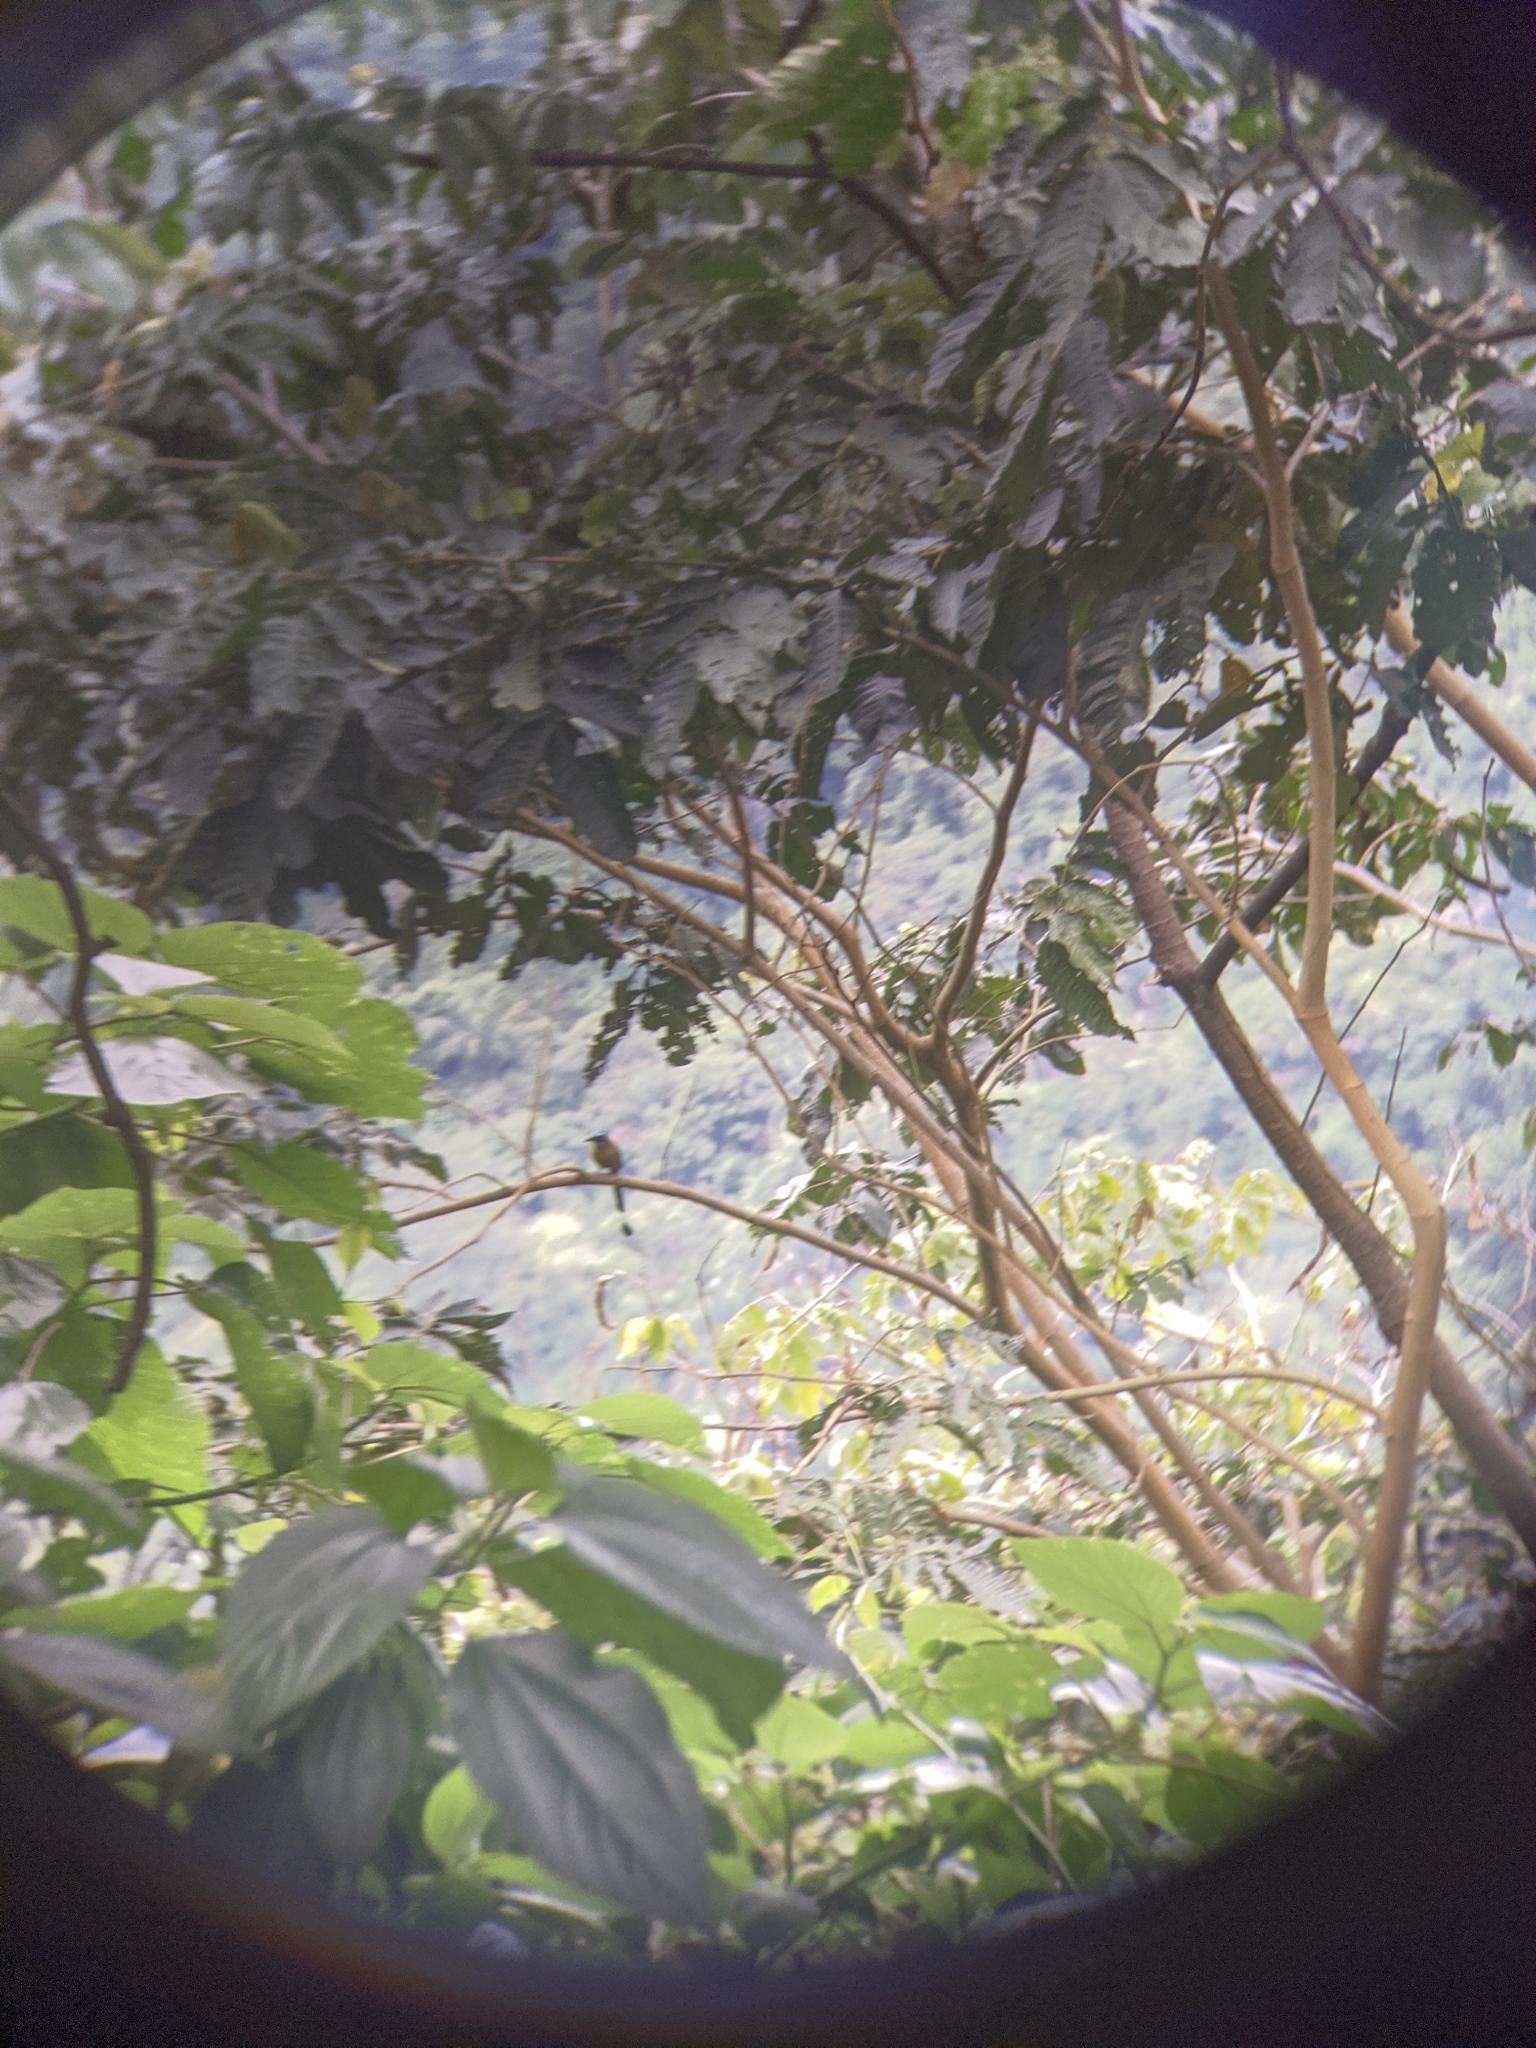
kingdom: Animalia
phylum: Chordata
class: Aves
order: Coraciiformes
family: Momotidae
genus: Momotus
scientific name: Momotus subrufescens
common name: Whooping motmot
